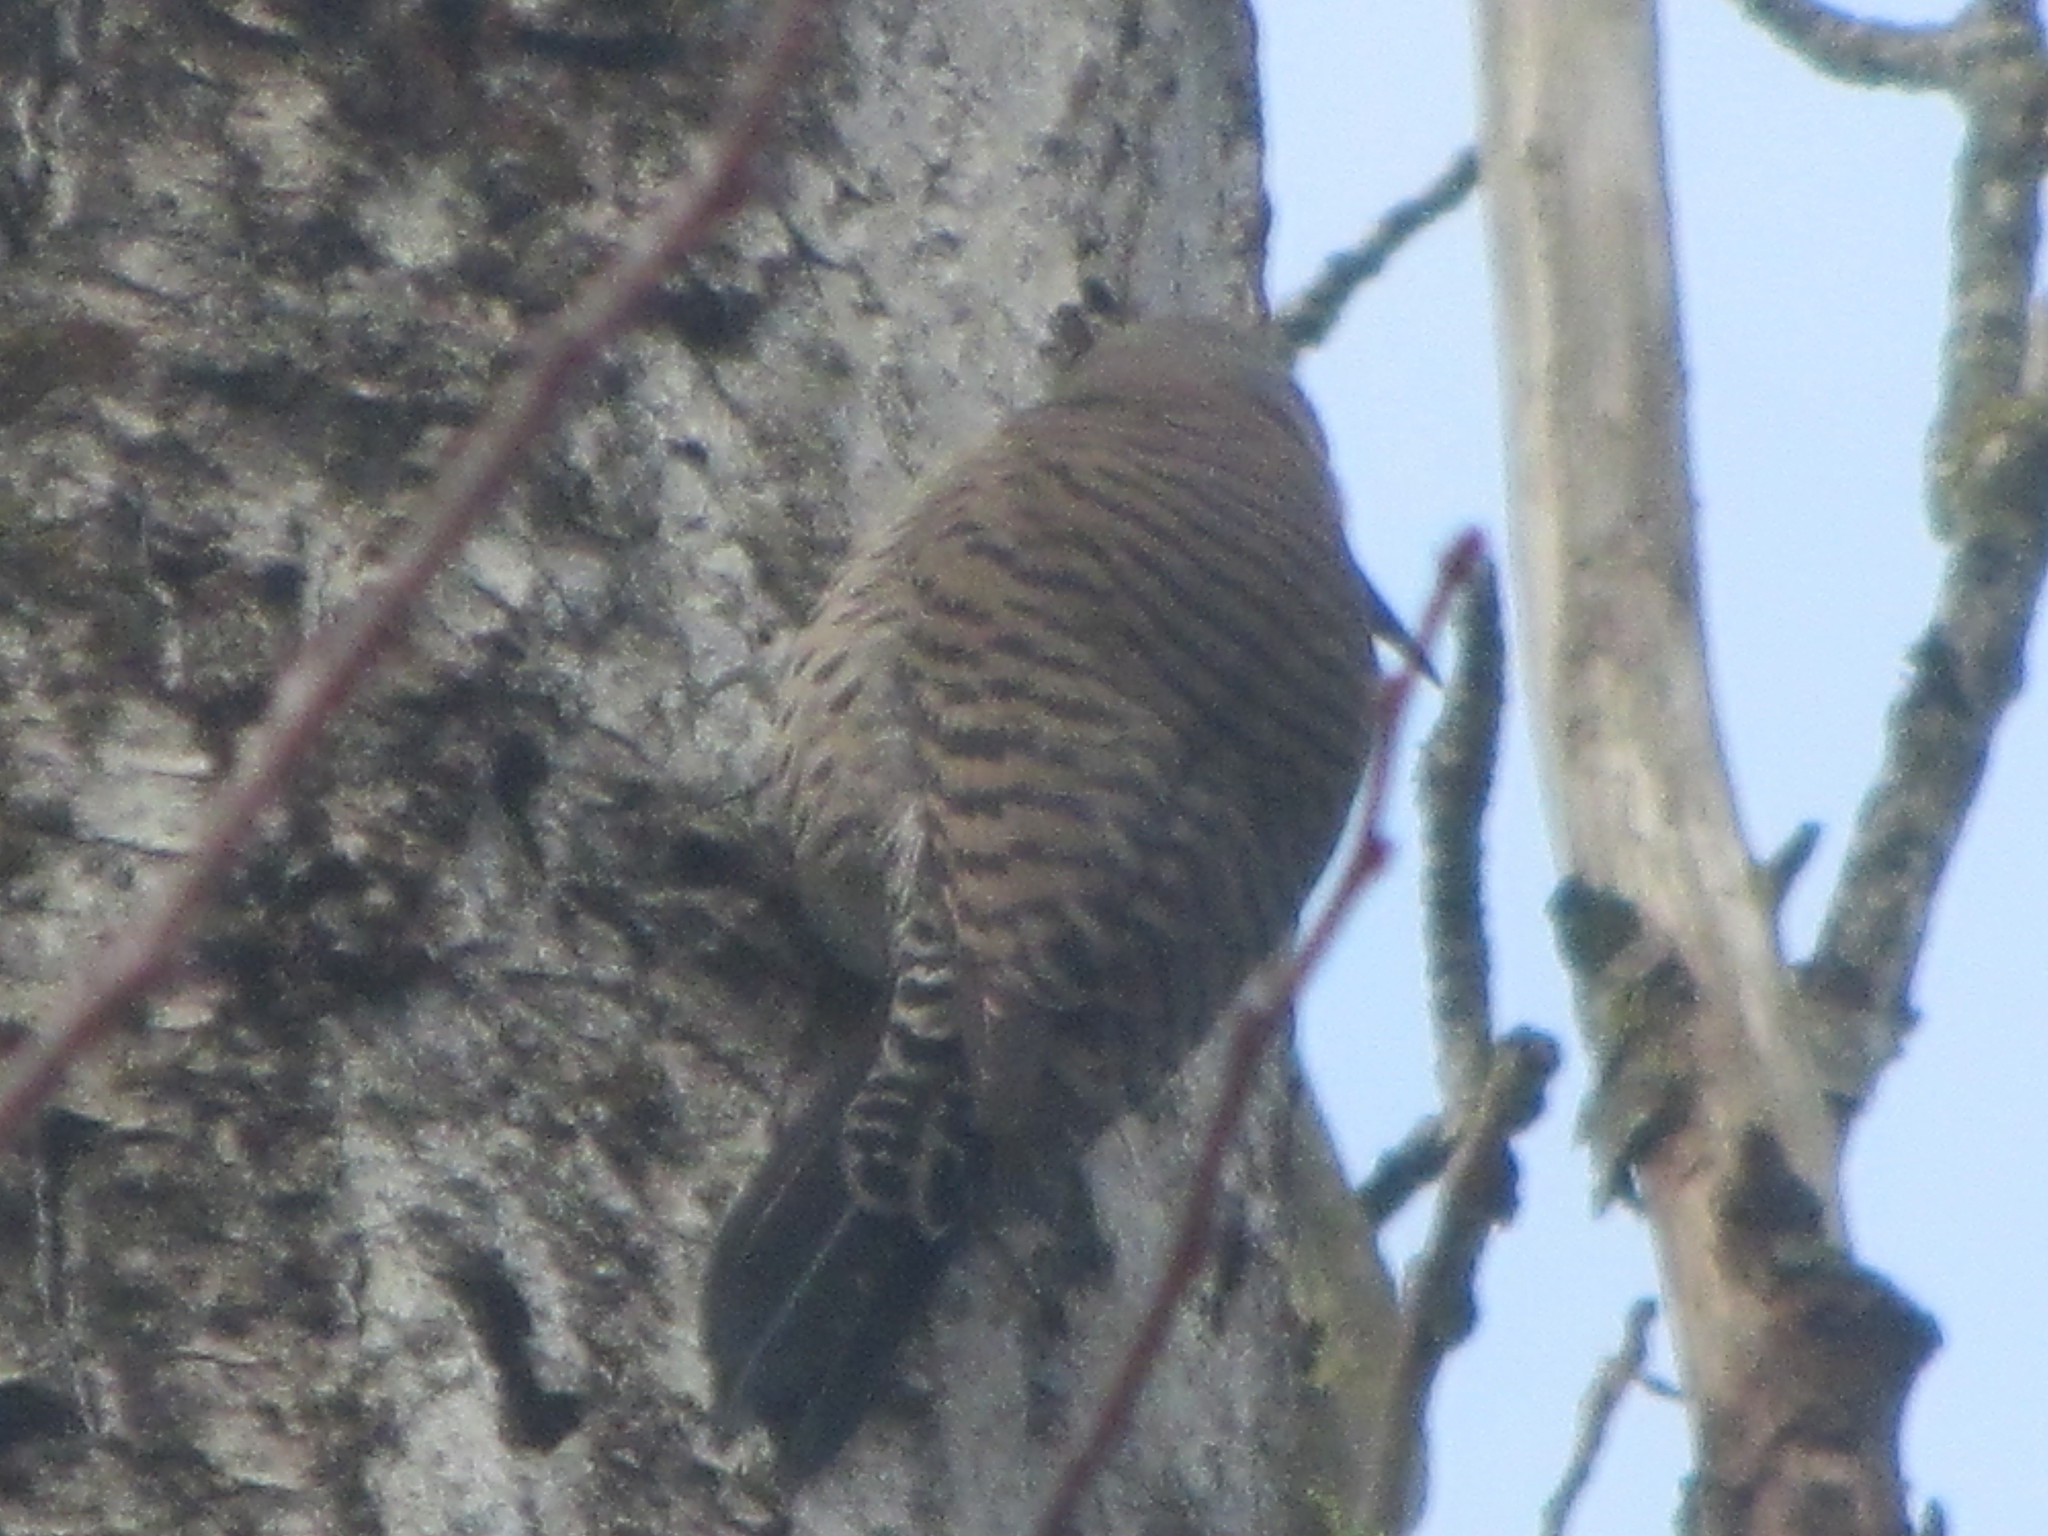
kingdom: Animalia
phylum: Chordata
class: Aves
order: Piciformes
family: Picidae
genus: Colaptes
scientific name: Colaptes auratus
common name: Northern flicker
